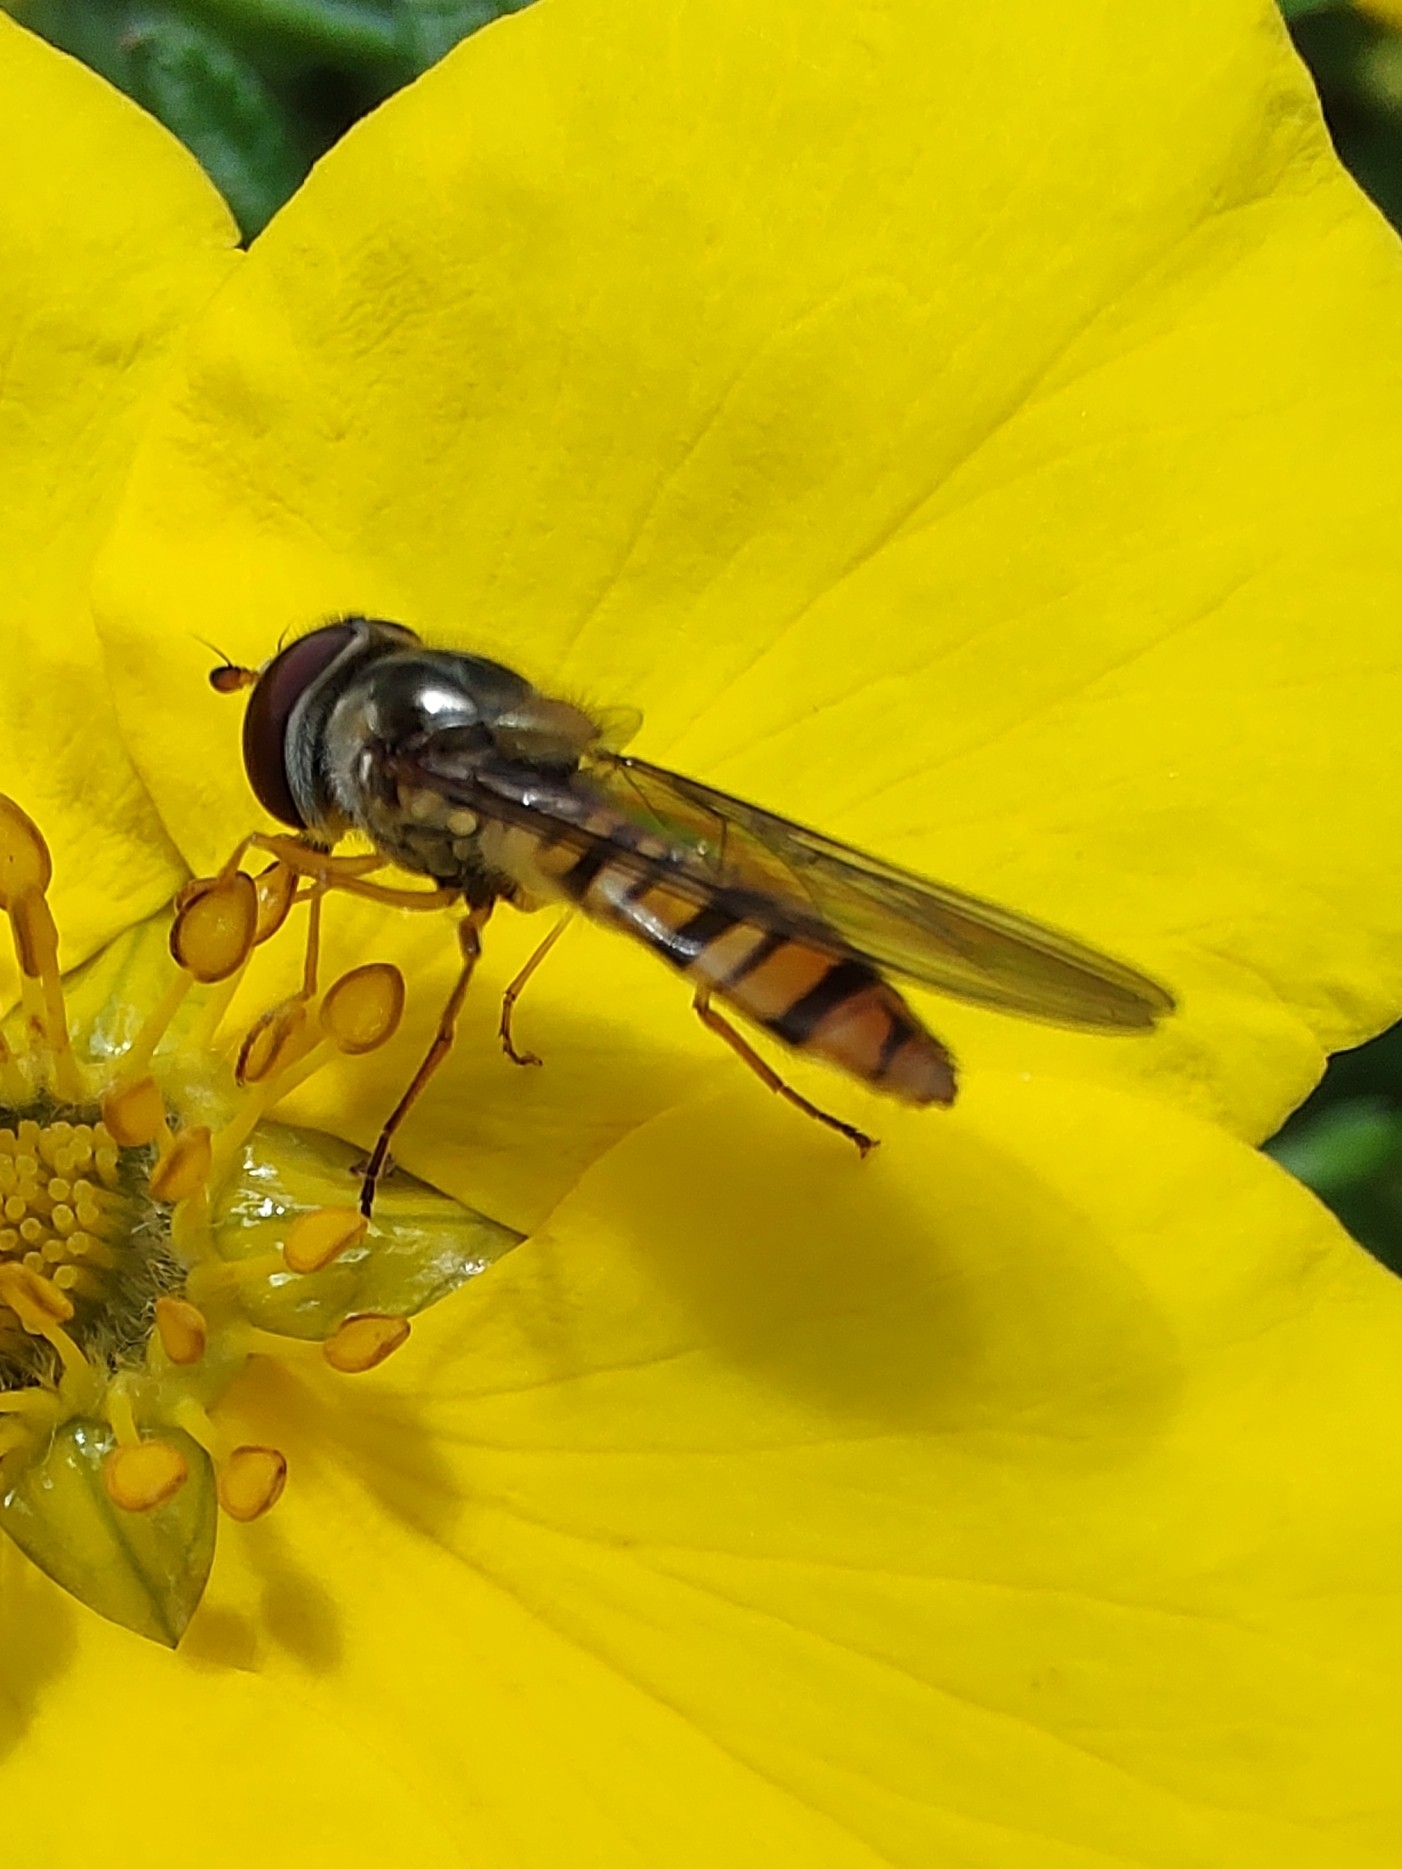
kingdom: Animalia
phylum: Arthropoda
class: Insecta
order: Diptera
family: Syrphidae
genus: Episyrphus
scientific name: Episyrphus balteatus
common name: Marmalade hoverfly
